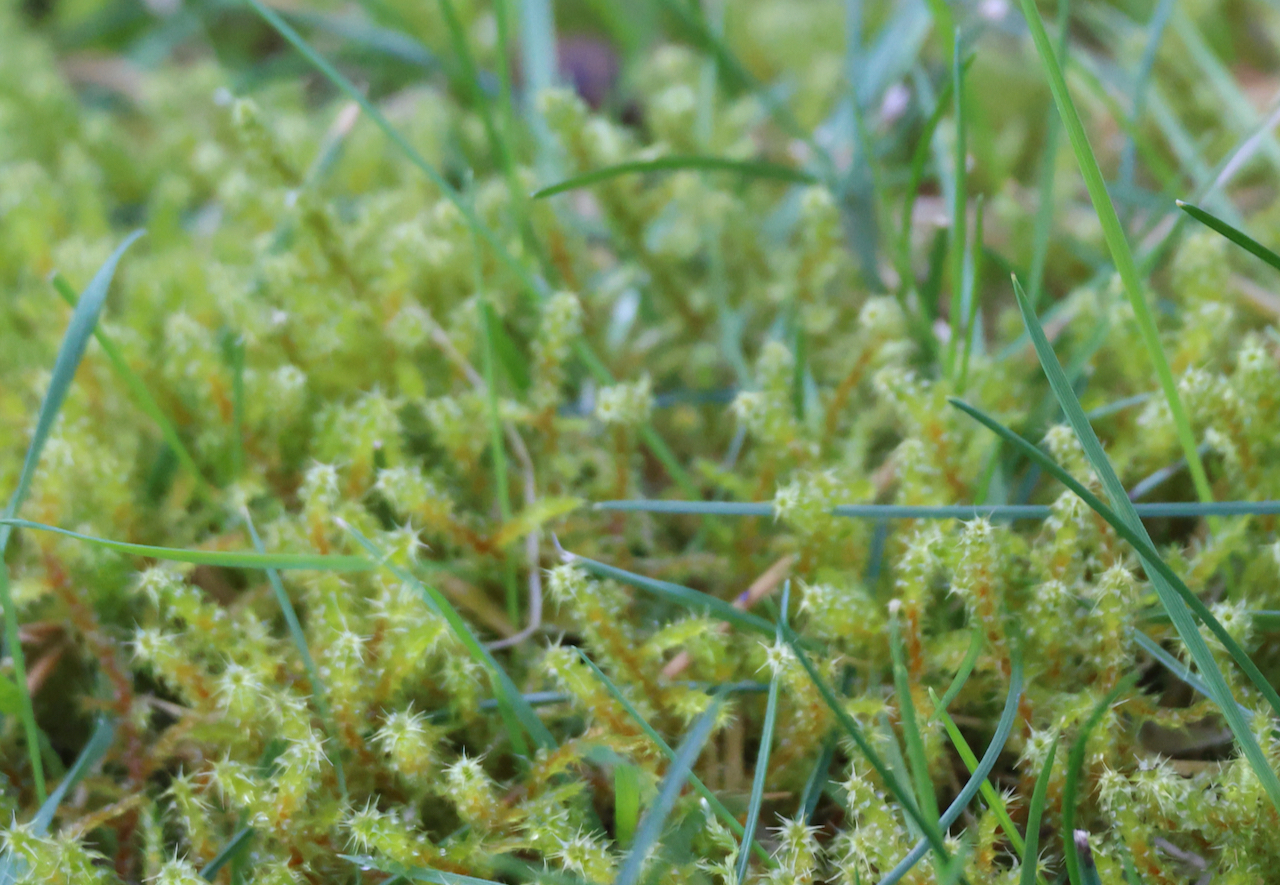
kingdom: Plantae
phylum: Bryophyta
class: Bryopsida
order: Hypnales
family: Hylocomiaceae
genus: Rhytidiadelphus
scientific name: Rhytidiadelphus squarrosus
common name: Springy turf-moss
